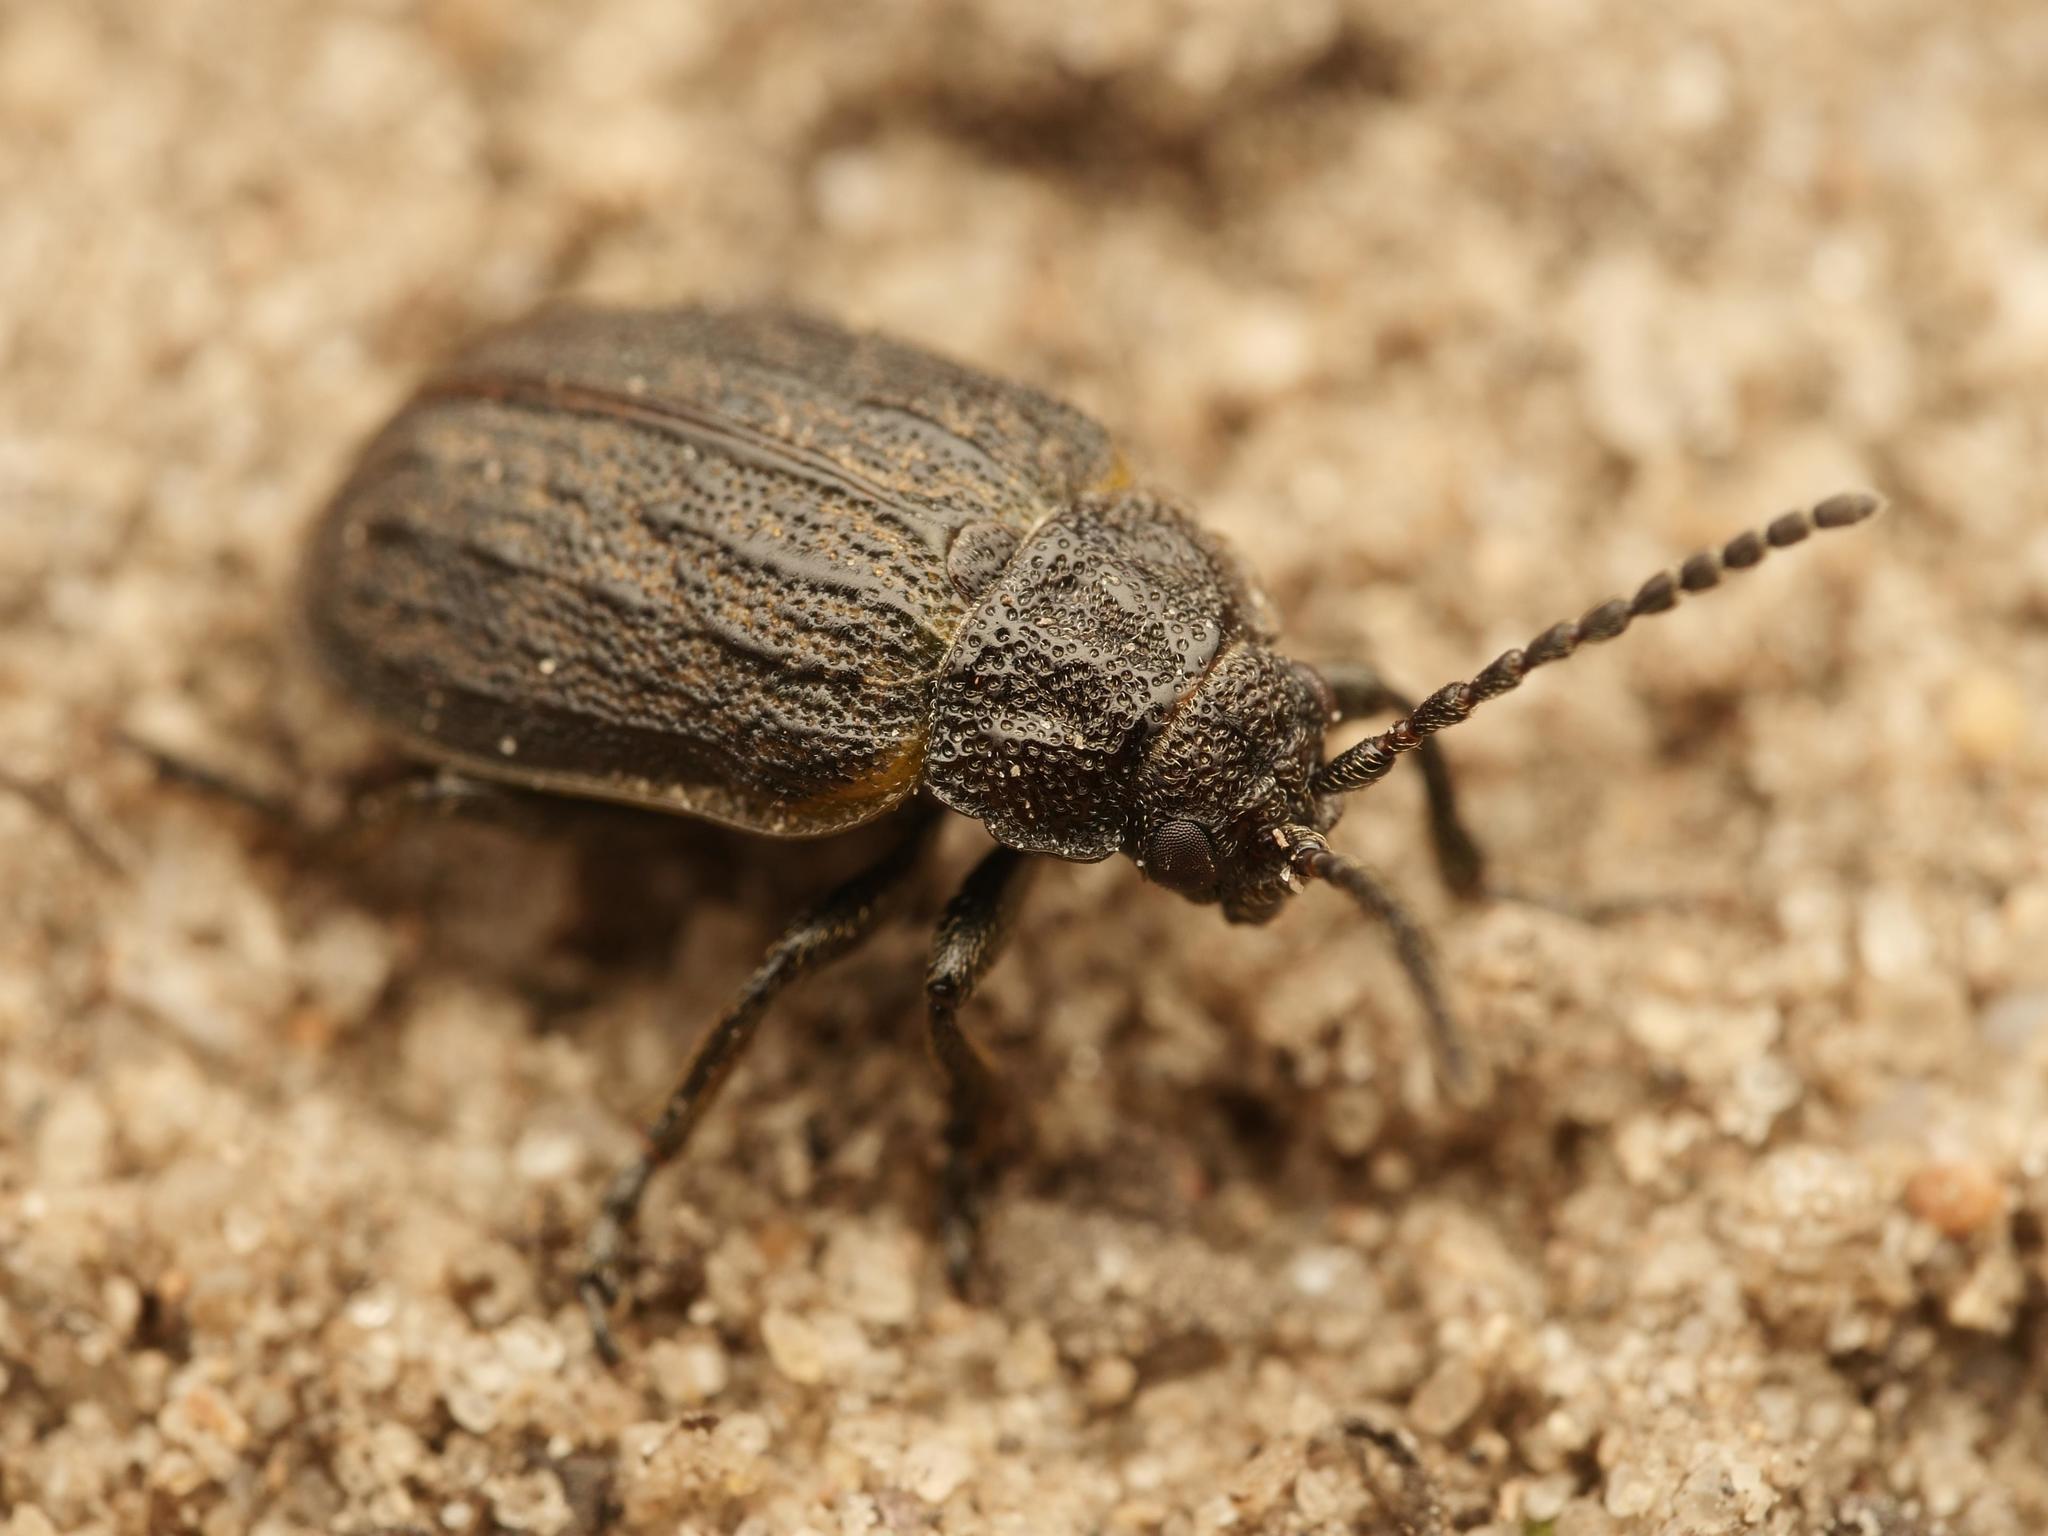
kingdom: Animalia
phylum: Arthropoda
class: Insecta
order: Coleoptera
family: Chrysomelidae
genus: Galeruca
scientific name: Galeruca interrupta
